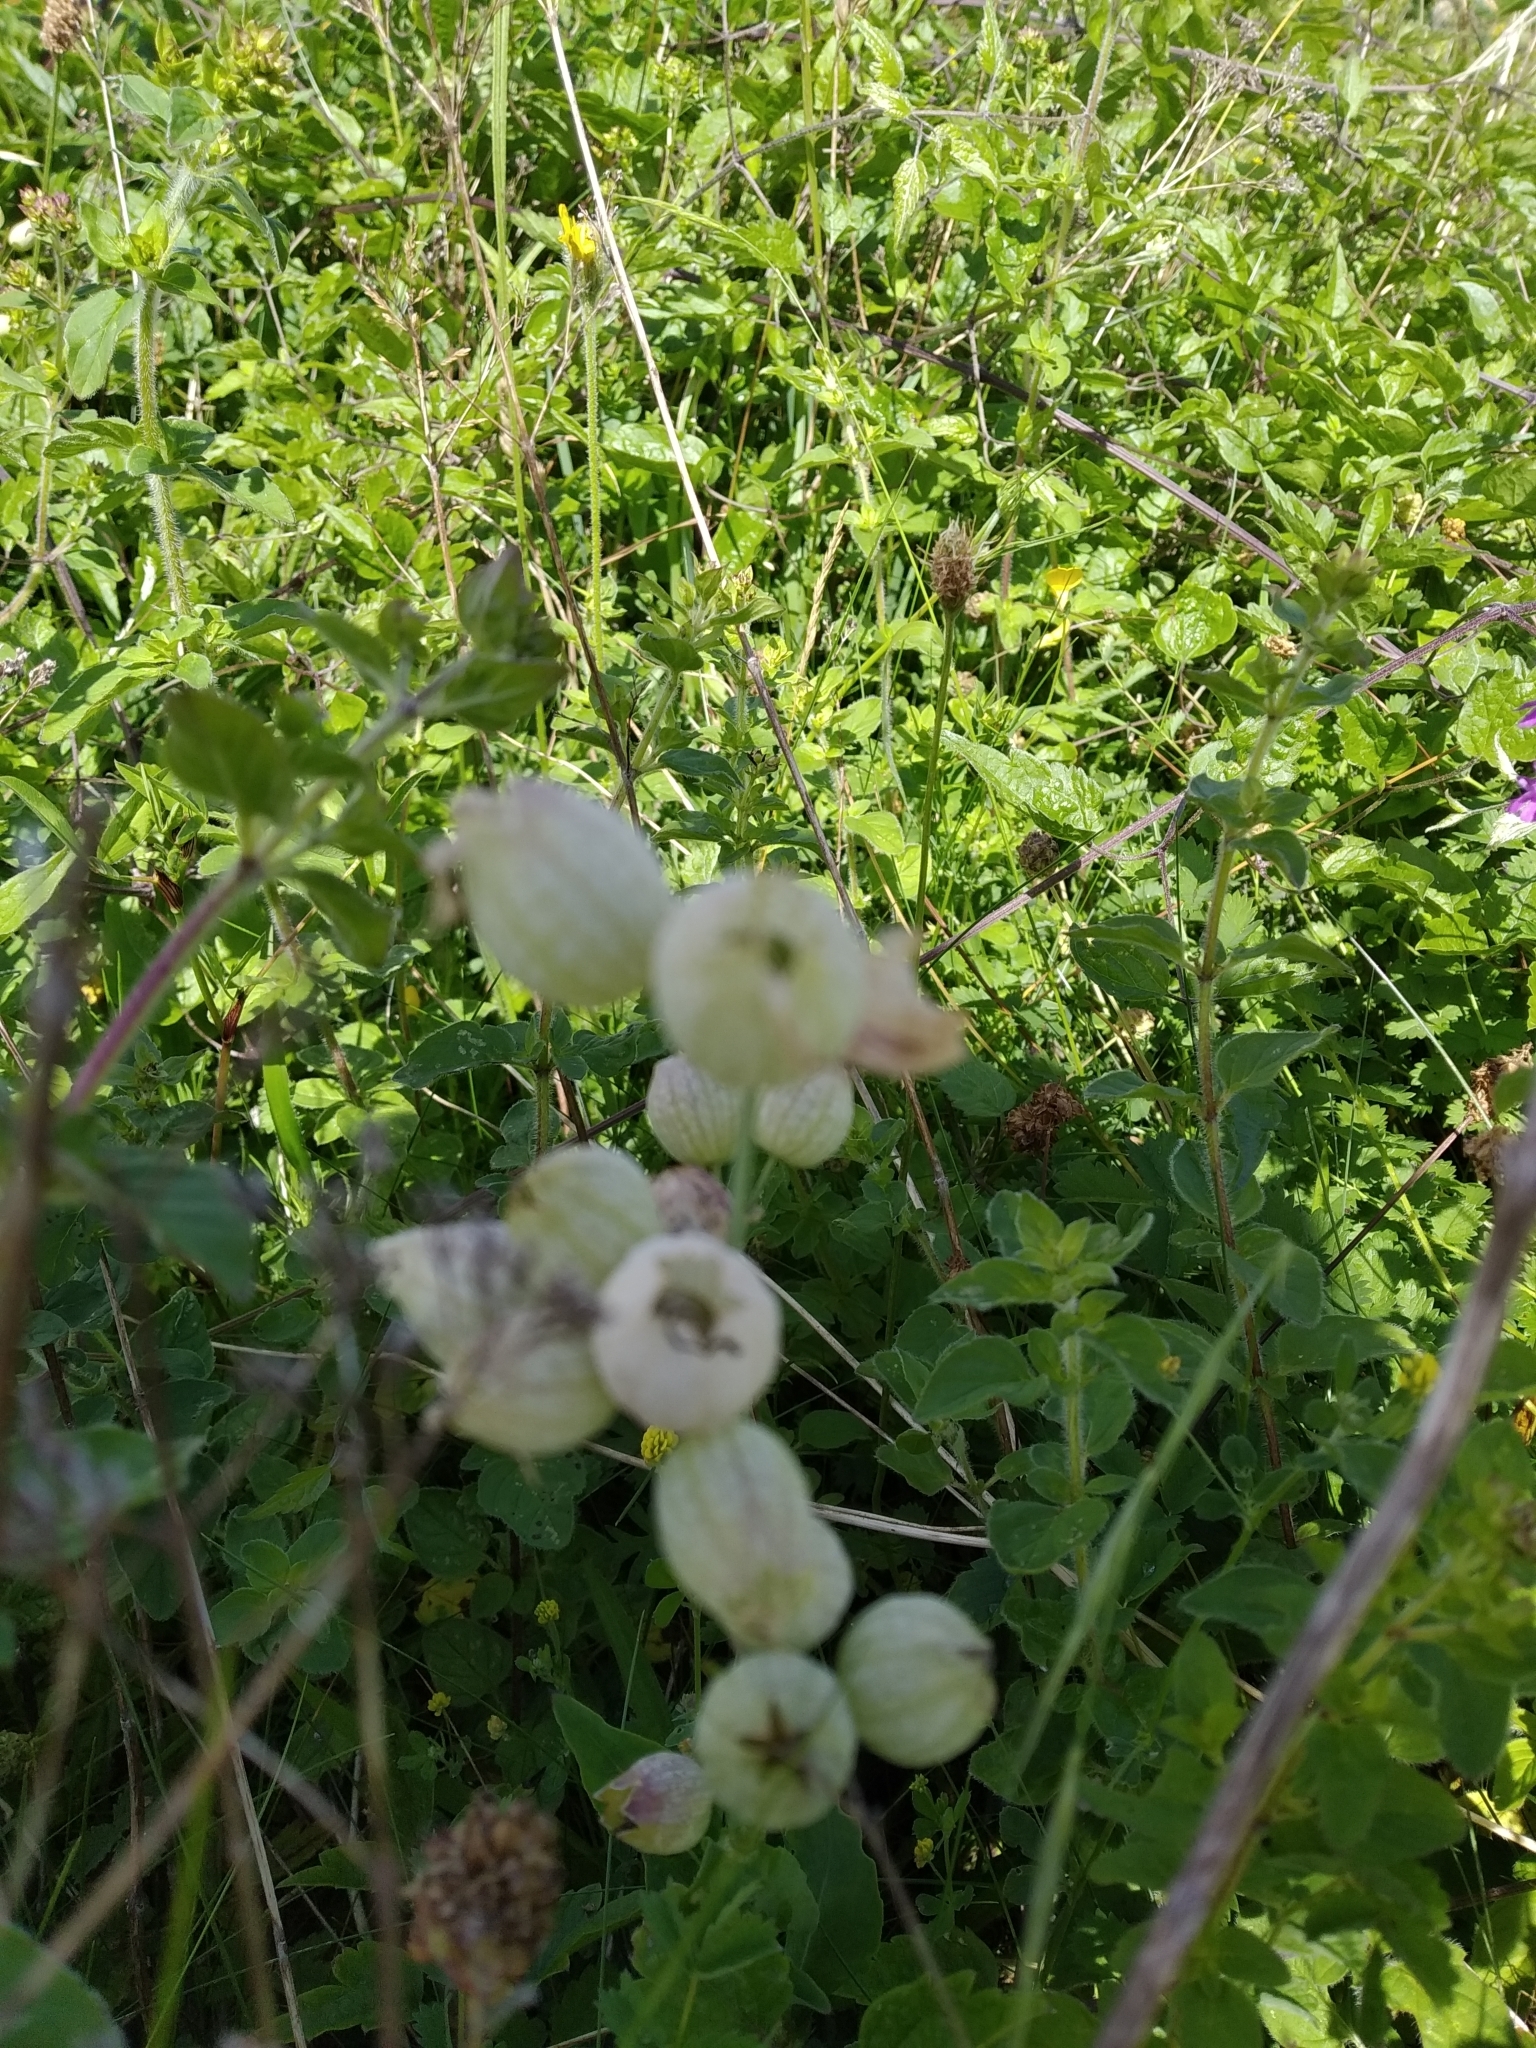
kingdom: Plantae
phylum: Tracheophyta
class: Magnoliopsida
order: Caryophyllales
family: Caryophyllaceae
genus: Silene
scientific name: Silene vulgaris
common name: Bladder campion
